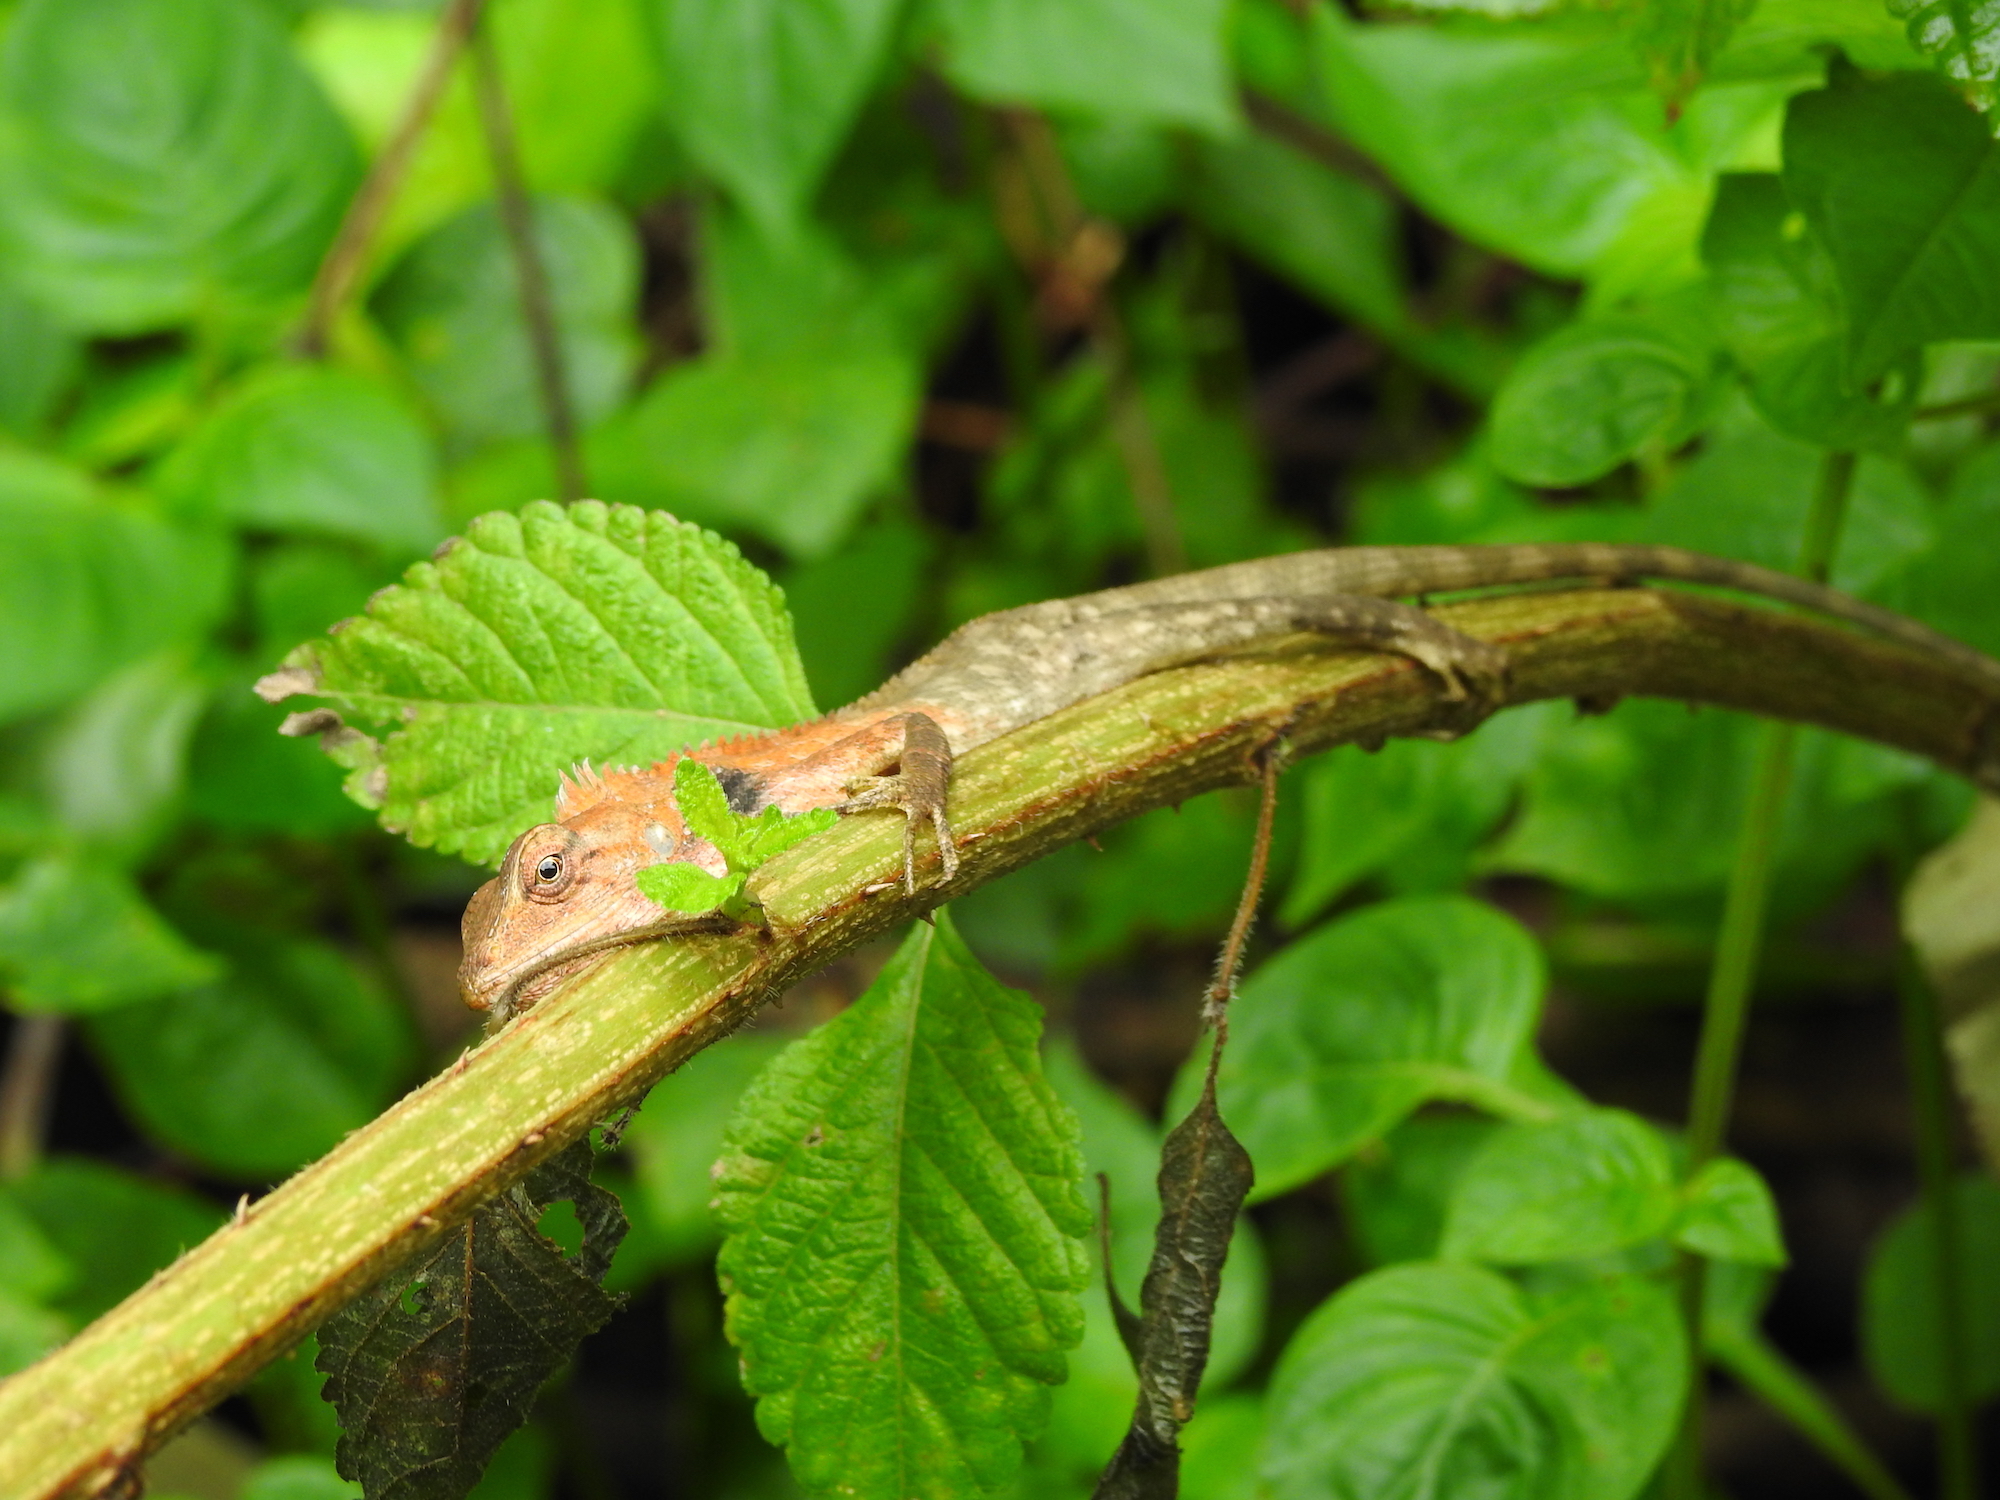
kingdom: Animalia
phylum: Chordata
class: Squamata
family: Agamidae
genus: Calotes
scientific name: Calotes versicolor
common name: Oriental garden lizard
